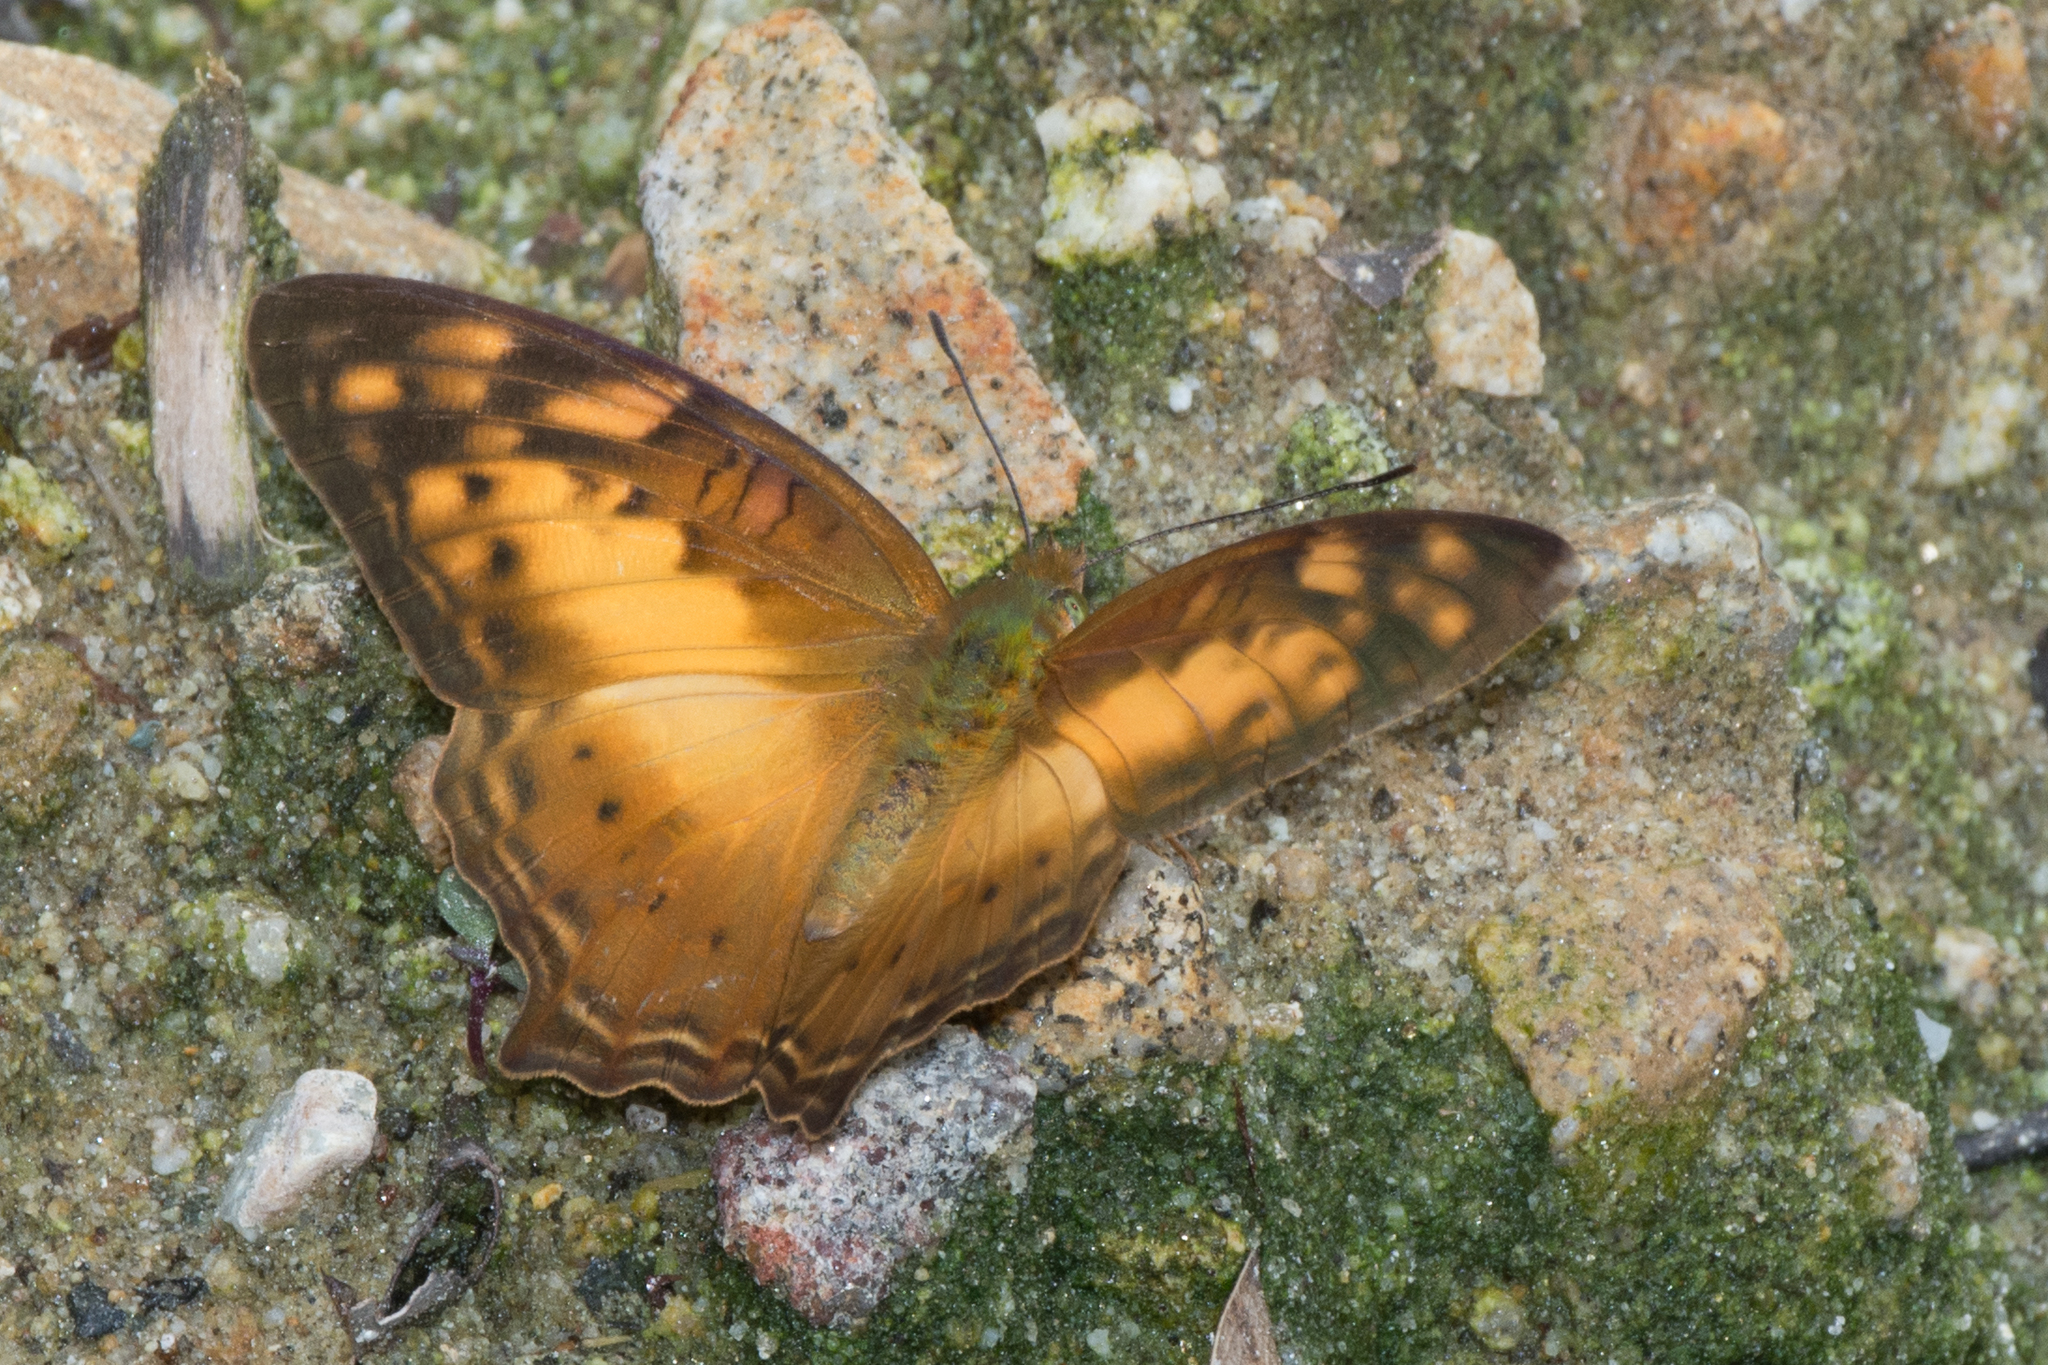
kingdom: Animalia
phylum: Arthropoda
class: Insecta
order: Lepidoptera
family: Nymphalidae
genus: Vagrans
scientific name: Vagrans sinha
